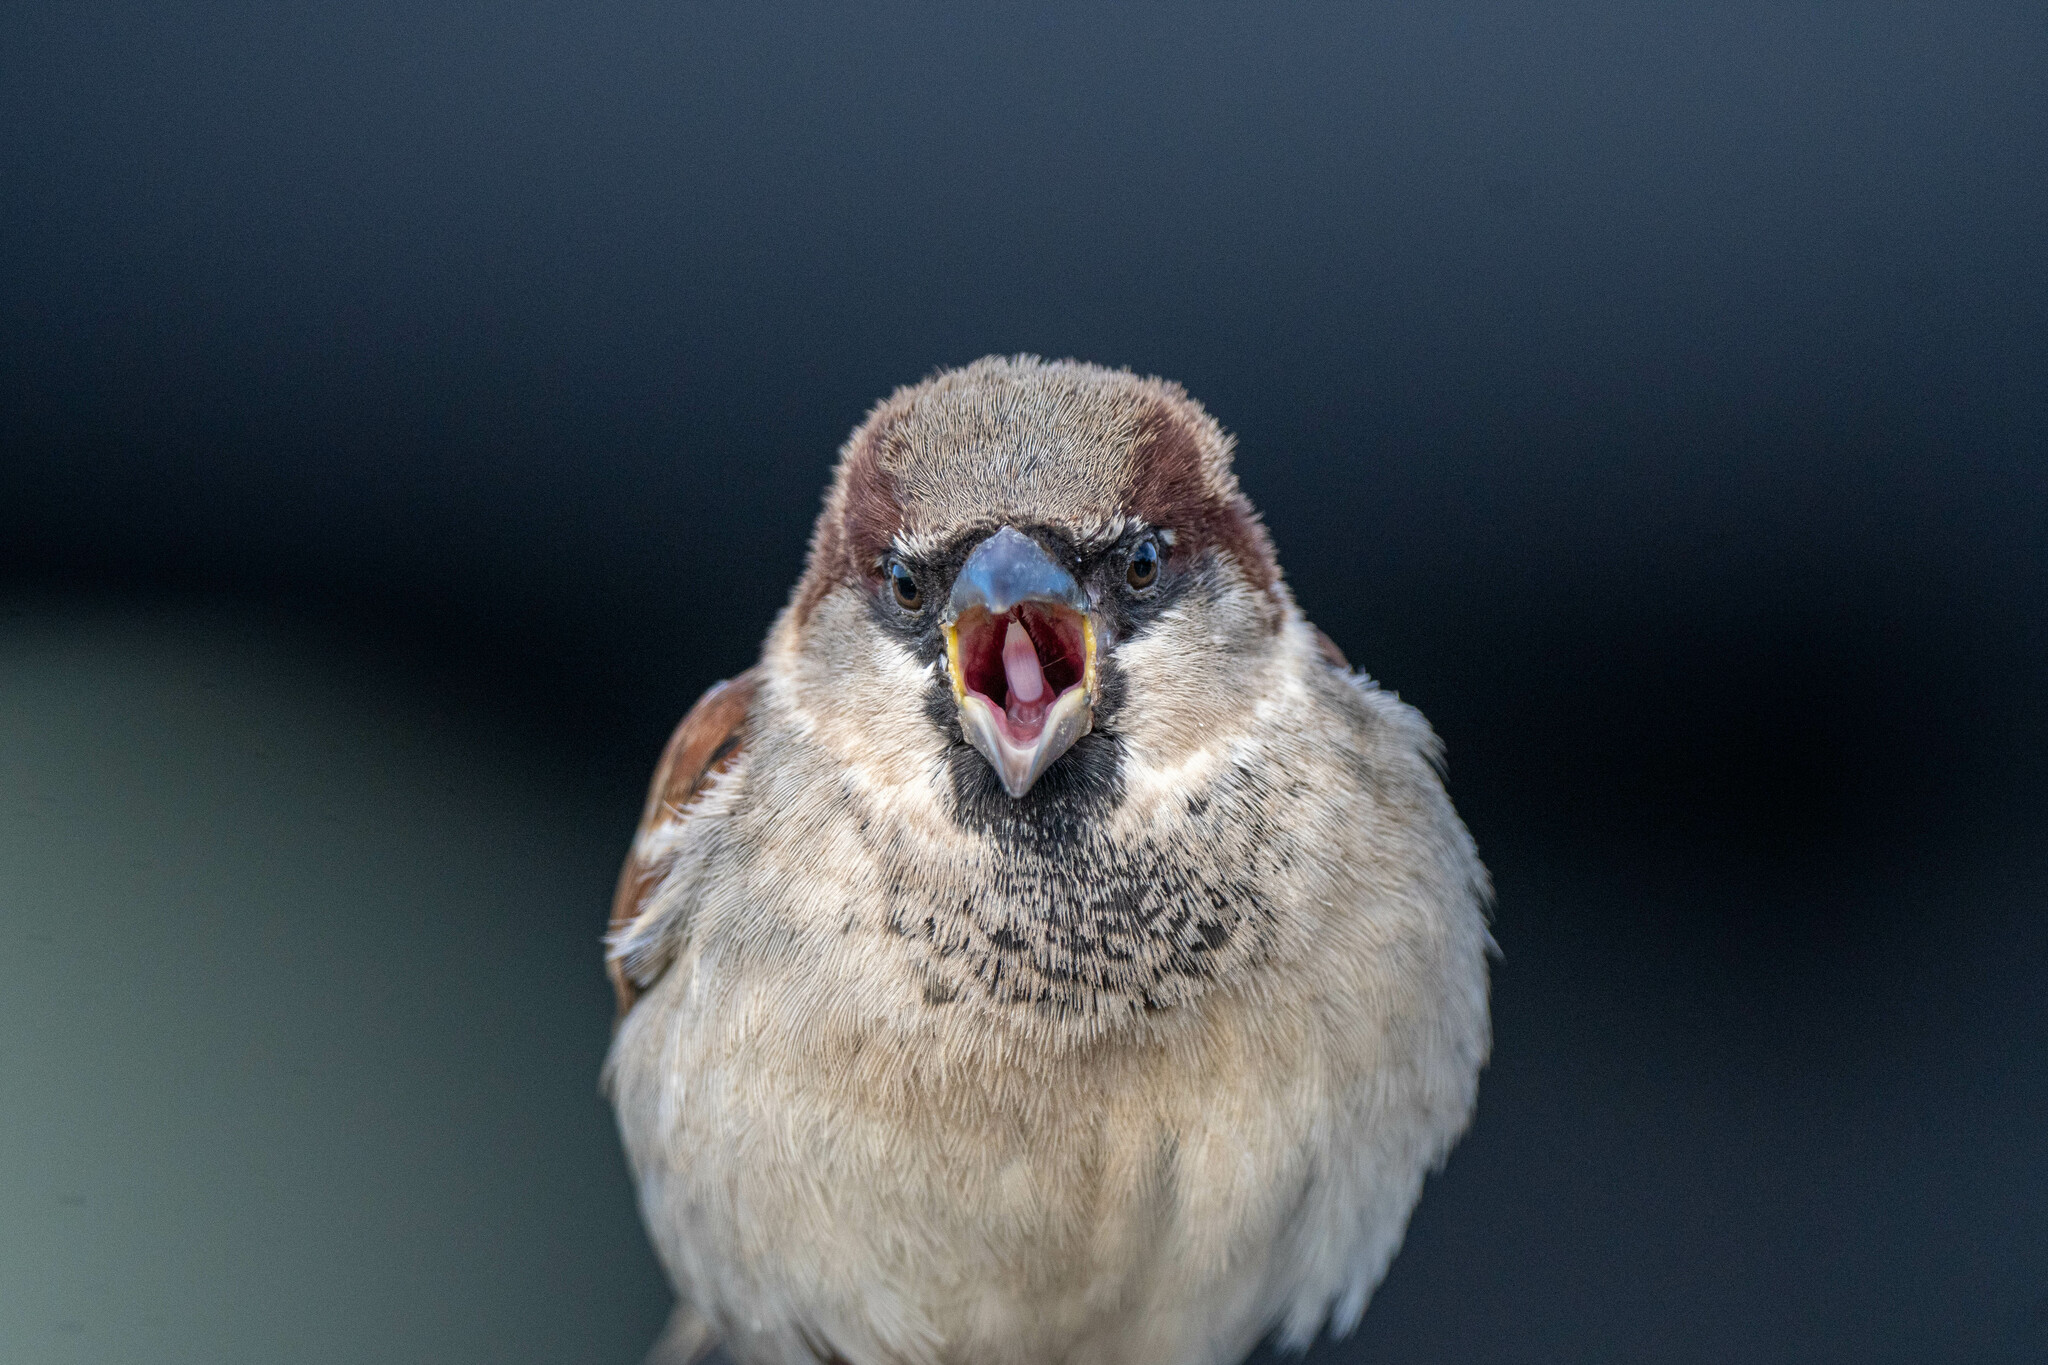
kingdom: Animalia
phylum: Chordata
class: Aves
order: Passeriformes
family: Passeridae
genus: Passer
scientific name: Passer domesticus
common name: House sparrow
